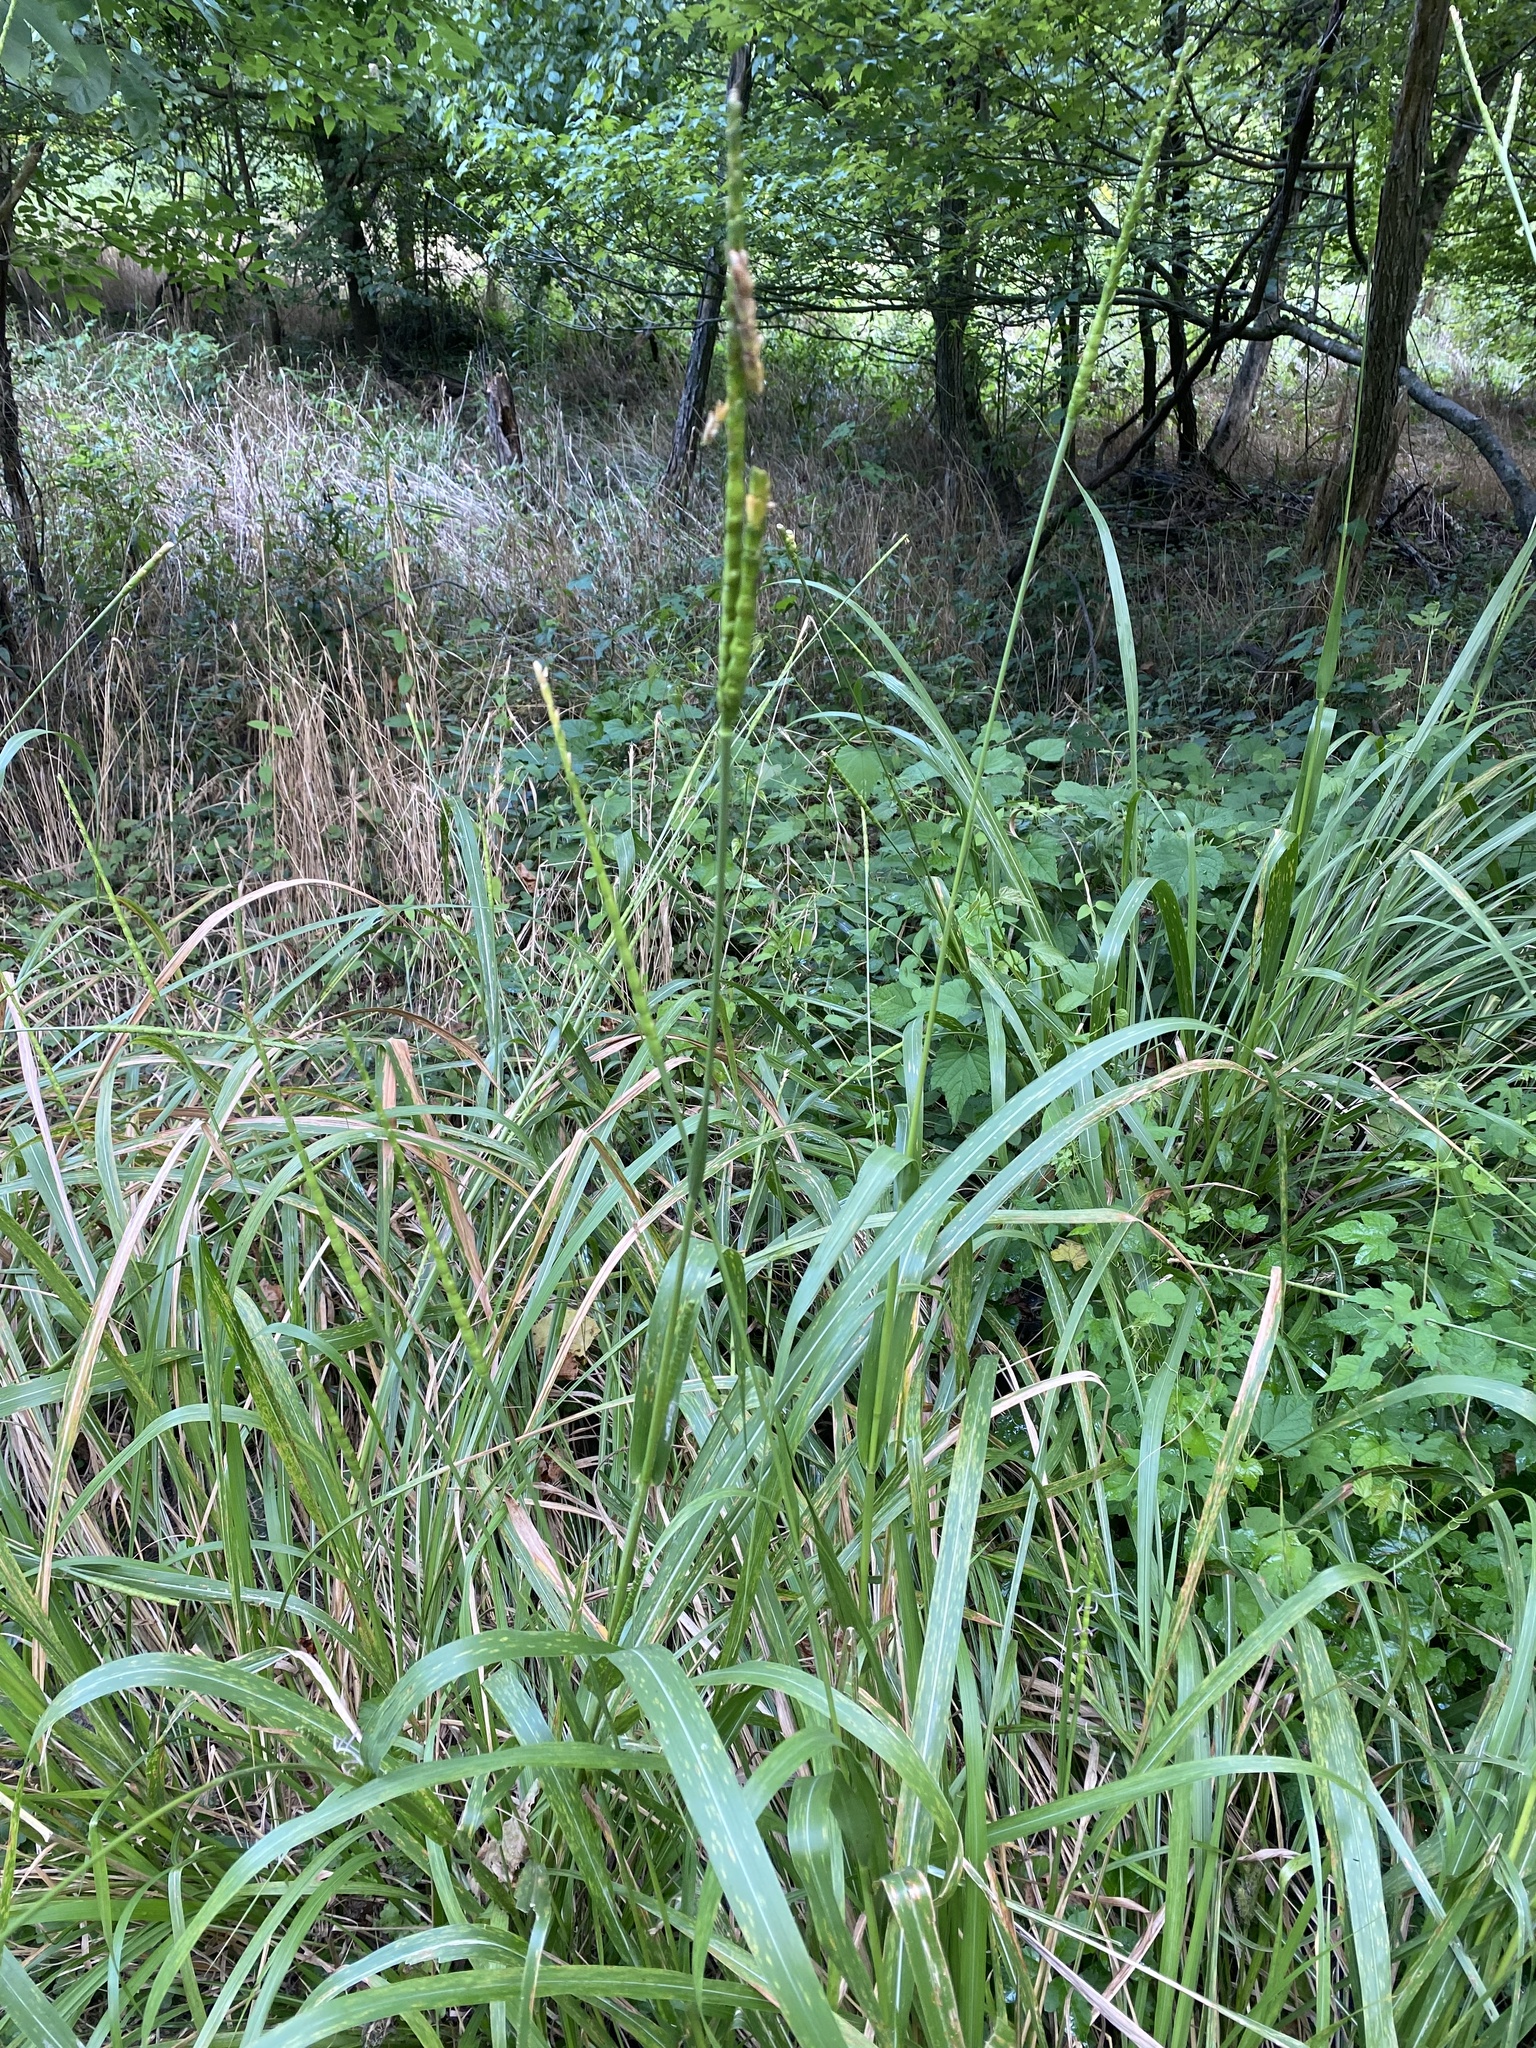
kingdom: Plantae
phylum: Tracheophyta
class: Liliopsida
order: Poales
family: Poaceae
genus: Tripsacum
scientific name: Tripsacum dactyloides
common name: Buffalo-grass
